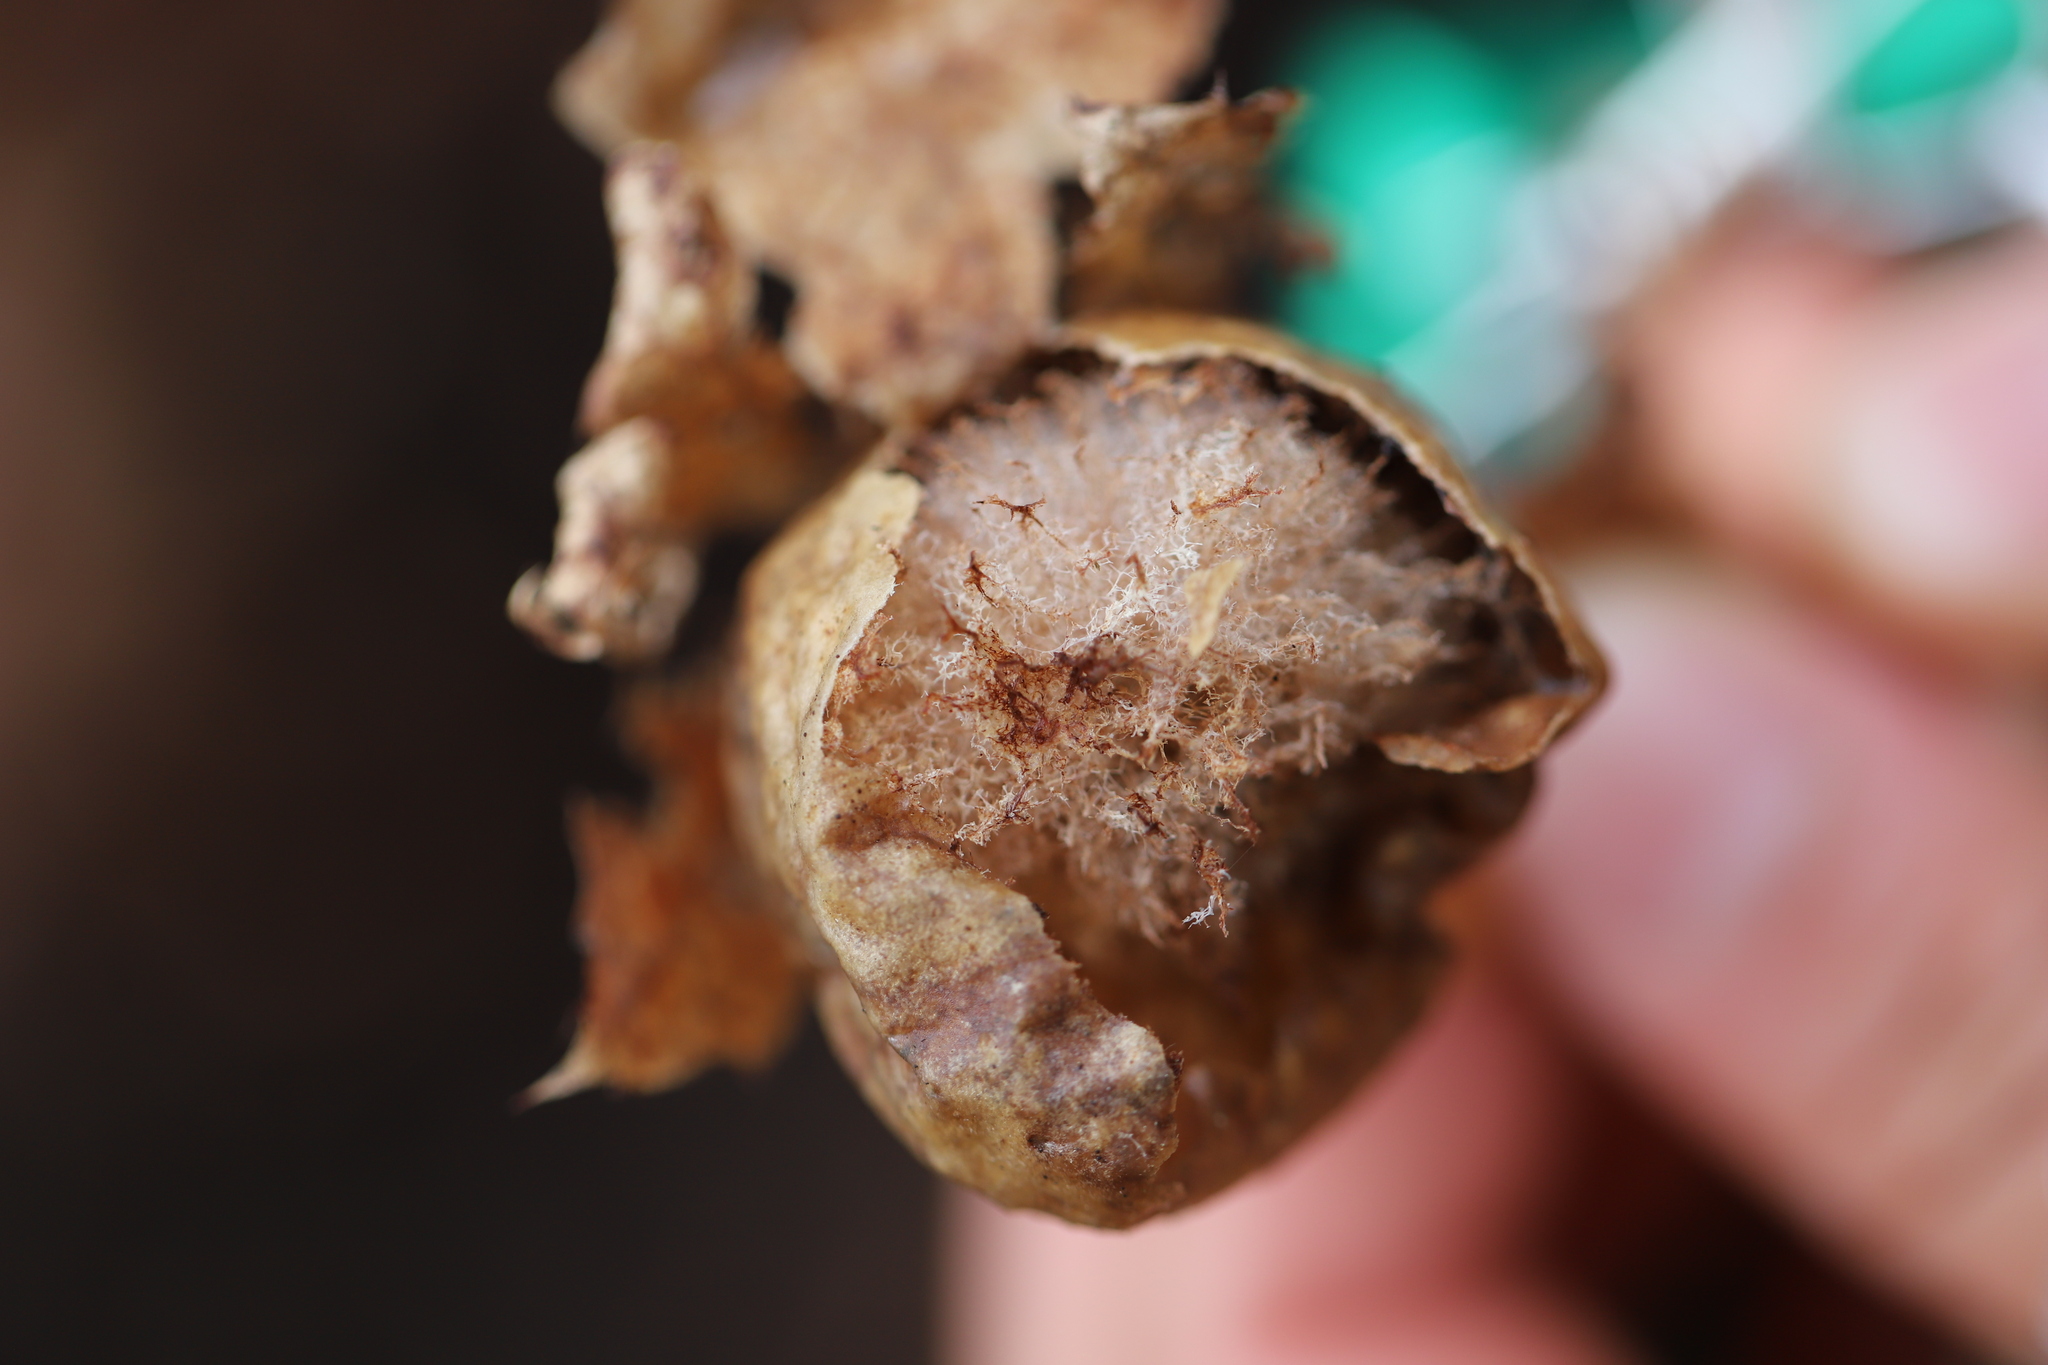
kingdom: Animalia
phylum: Arthropoda
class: Insecta
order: Hymenoptera
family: Cynipidae
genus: Amphibolips
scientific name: Amphibolips
